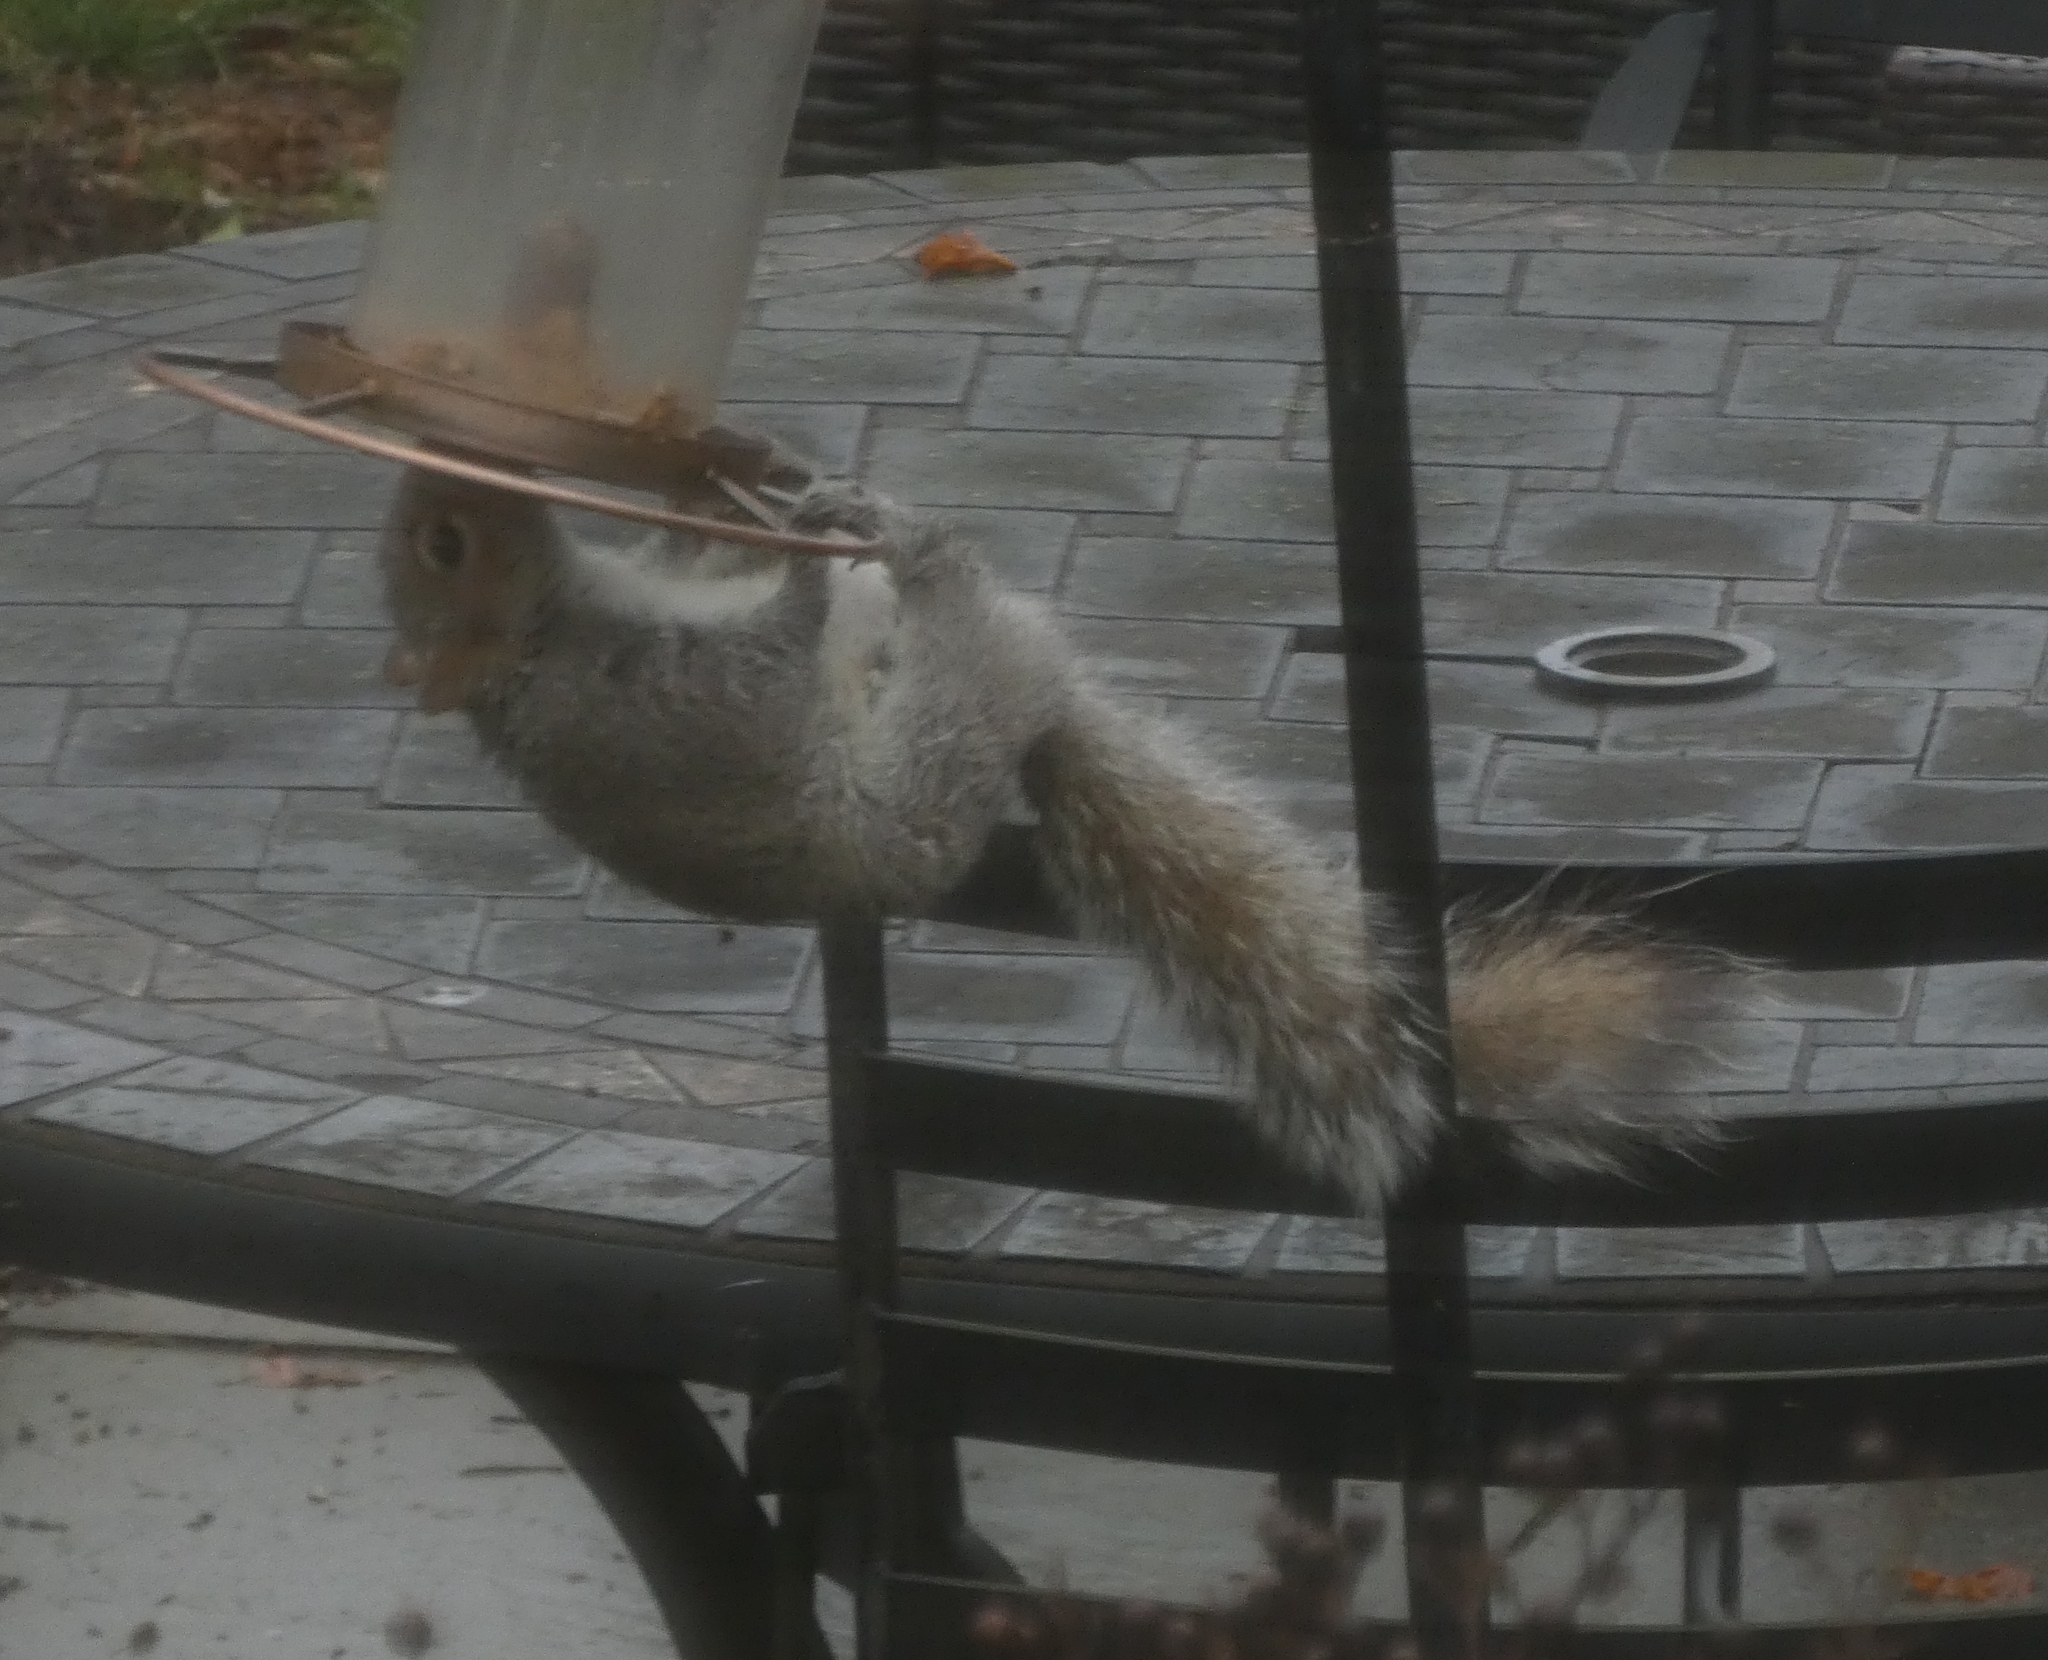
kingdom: Animalia
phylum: Chordata
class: Mammalia
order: Rodentia
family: Sciuridae
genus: Sciurus
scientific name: Sciurus carolinensis
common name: Eastern gray squirrel
